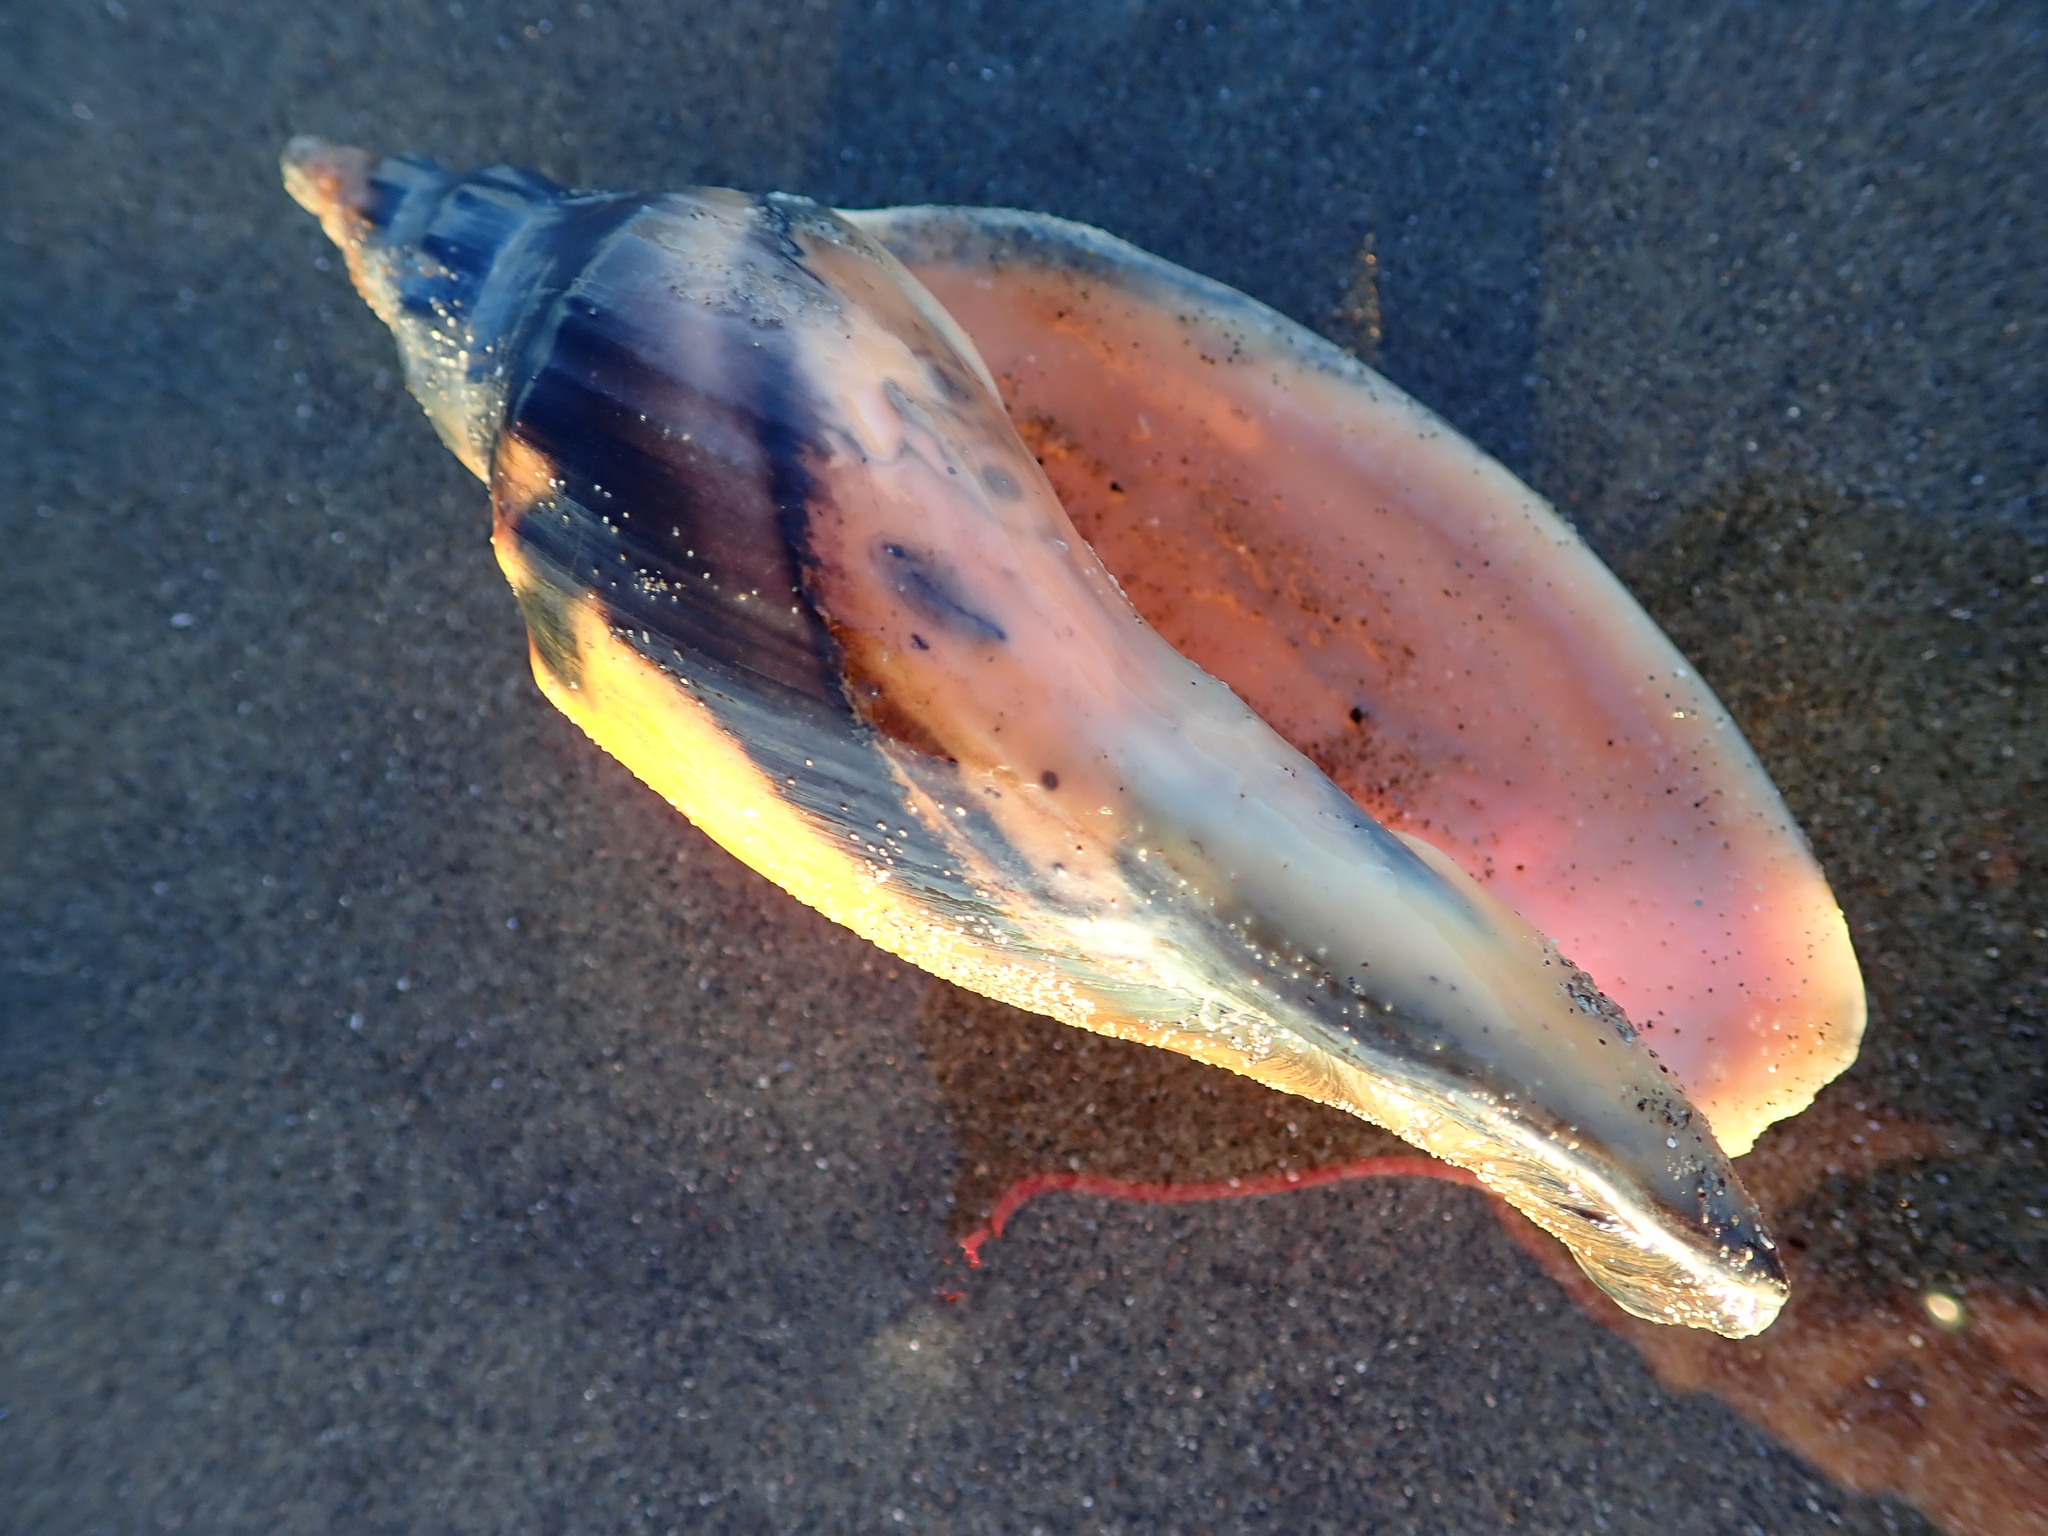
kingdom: Animalia
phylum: Mollusca
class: Gastropoda
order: Neogastropoda
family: Volutidae
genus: Alcithoe
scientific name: Alcithoe arabica
